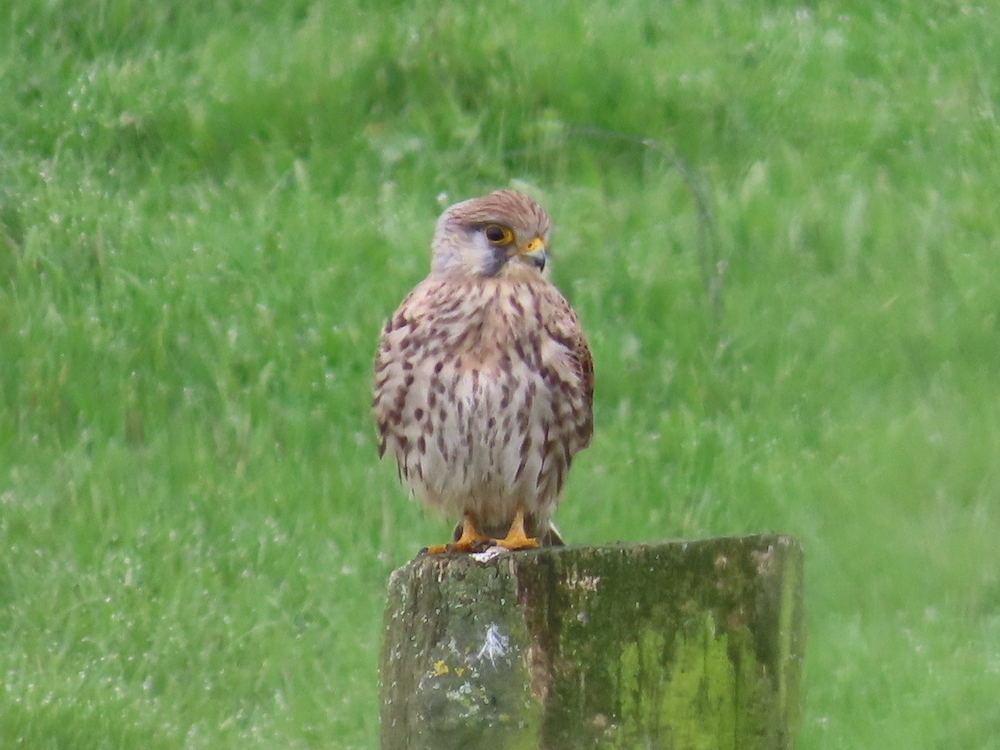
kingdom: Animalia
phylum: Chordata
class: Aves
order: Falconiformes
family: Falconidae
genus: Falco
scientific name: Falco tinnunculus
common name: Common kestrel
